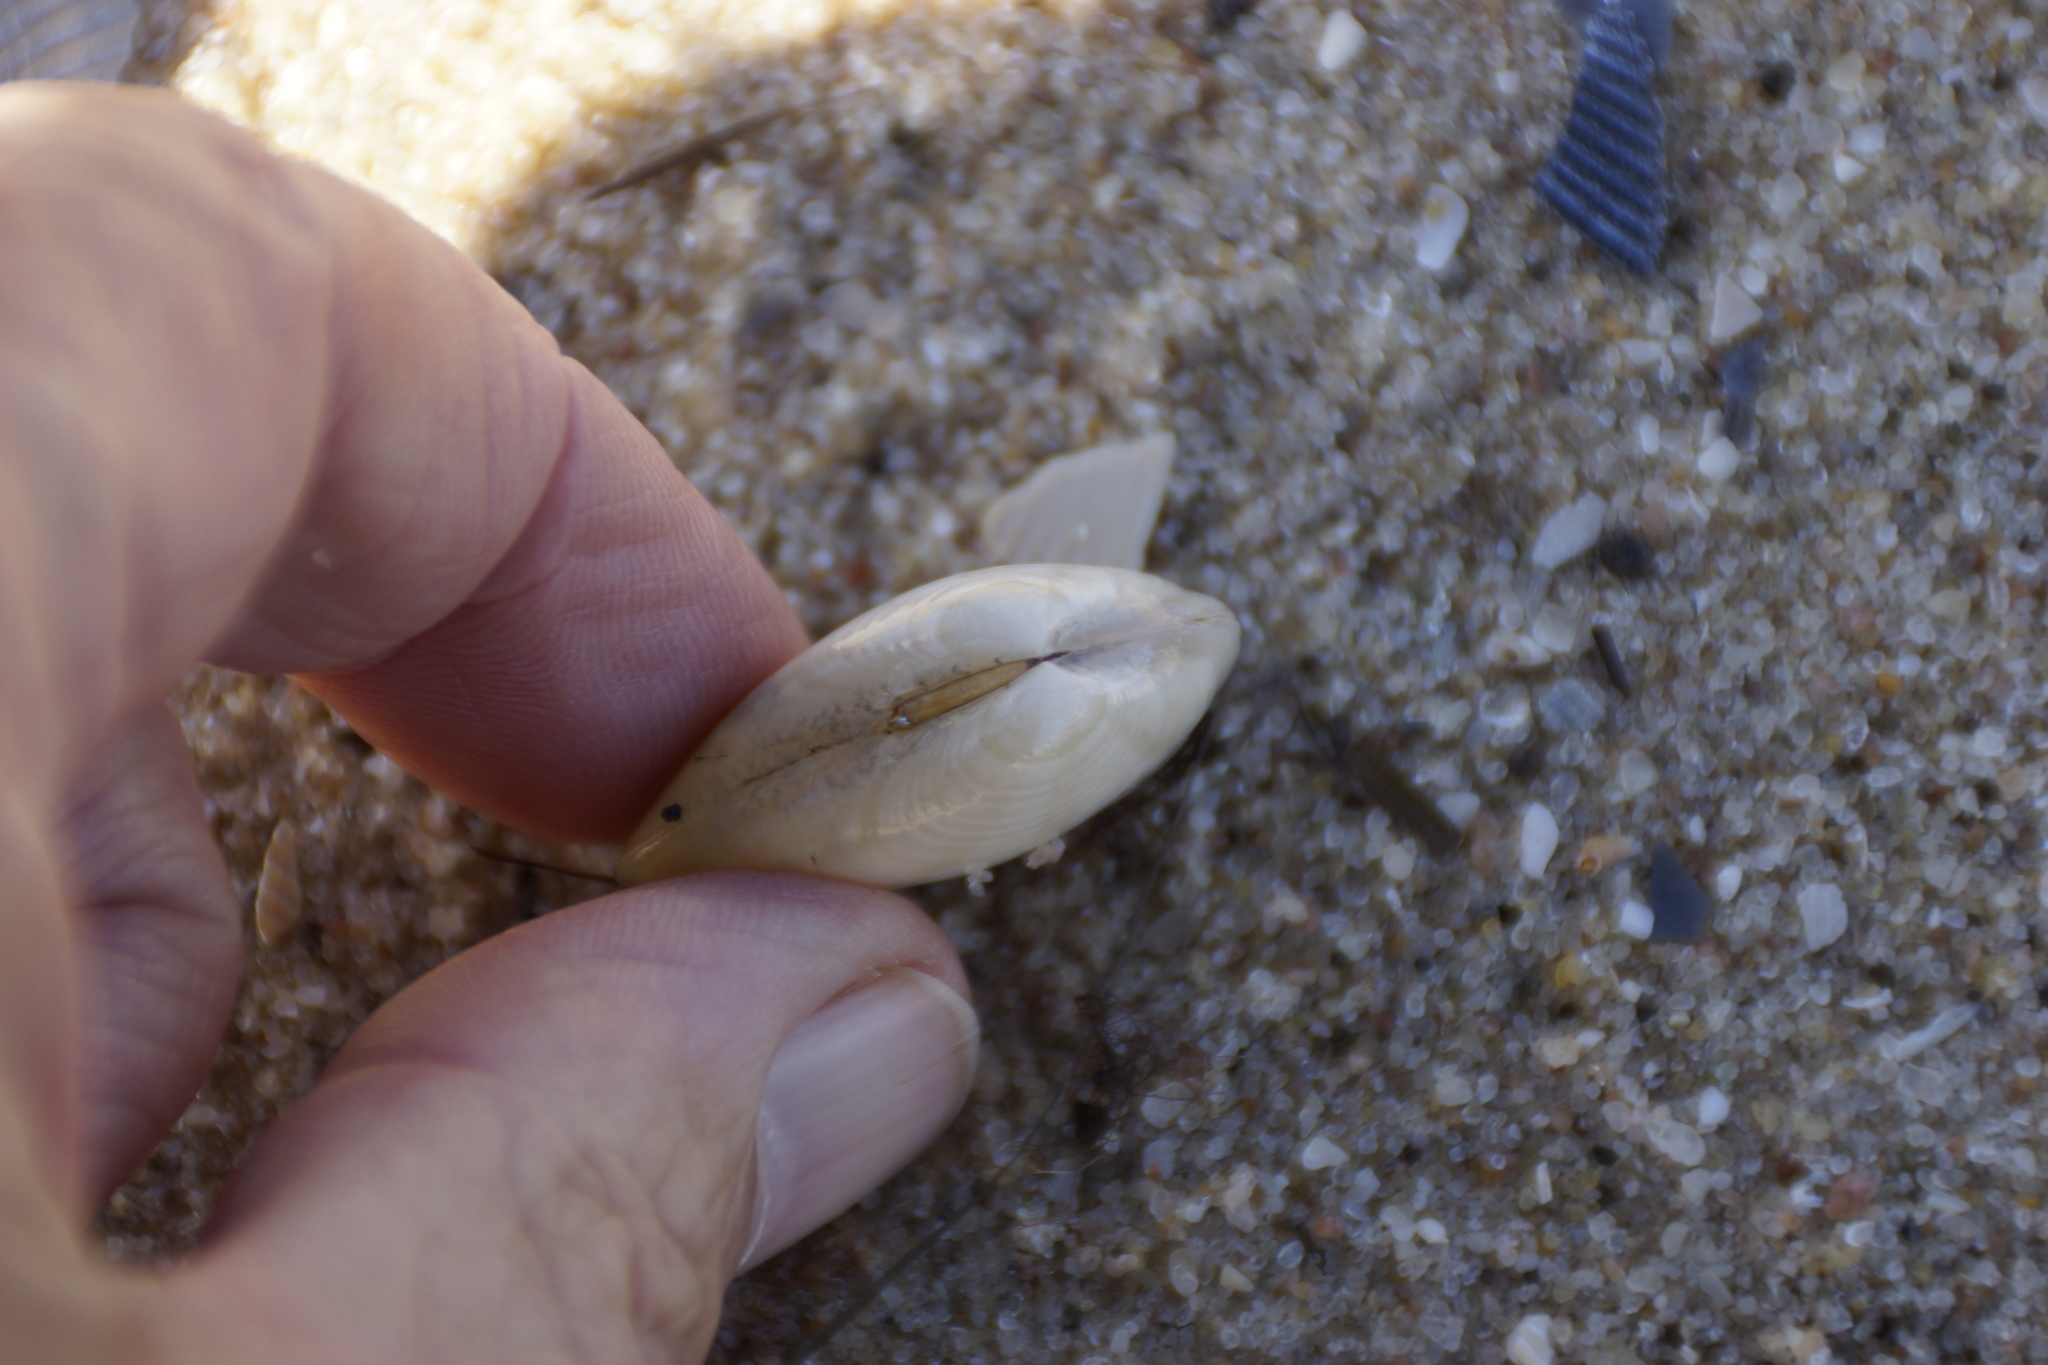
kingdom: Animalia
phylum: Mollusca
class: Bivalvia
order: Venerida
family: Veneridae
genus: Eumarcia
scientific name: Eumarcia fumigata
